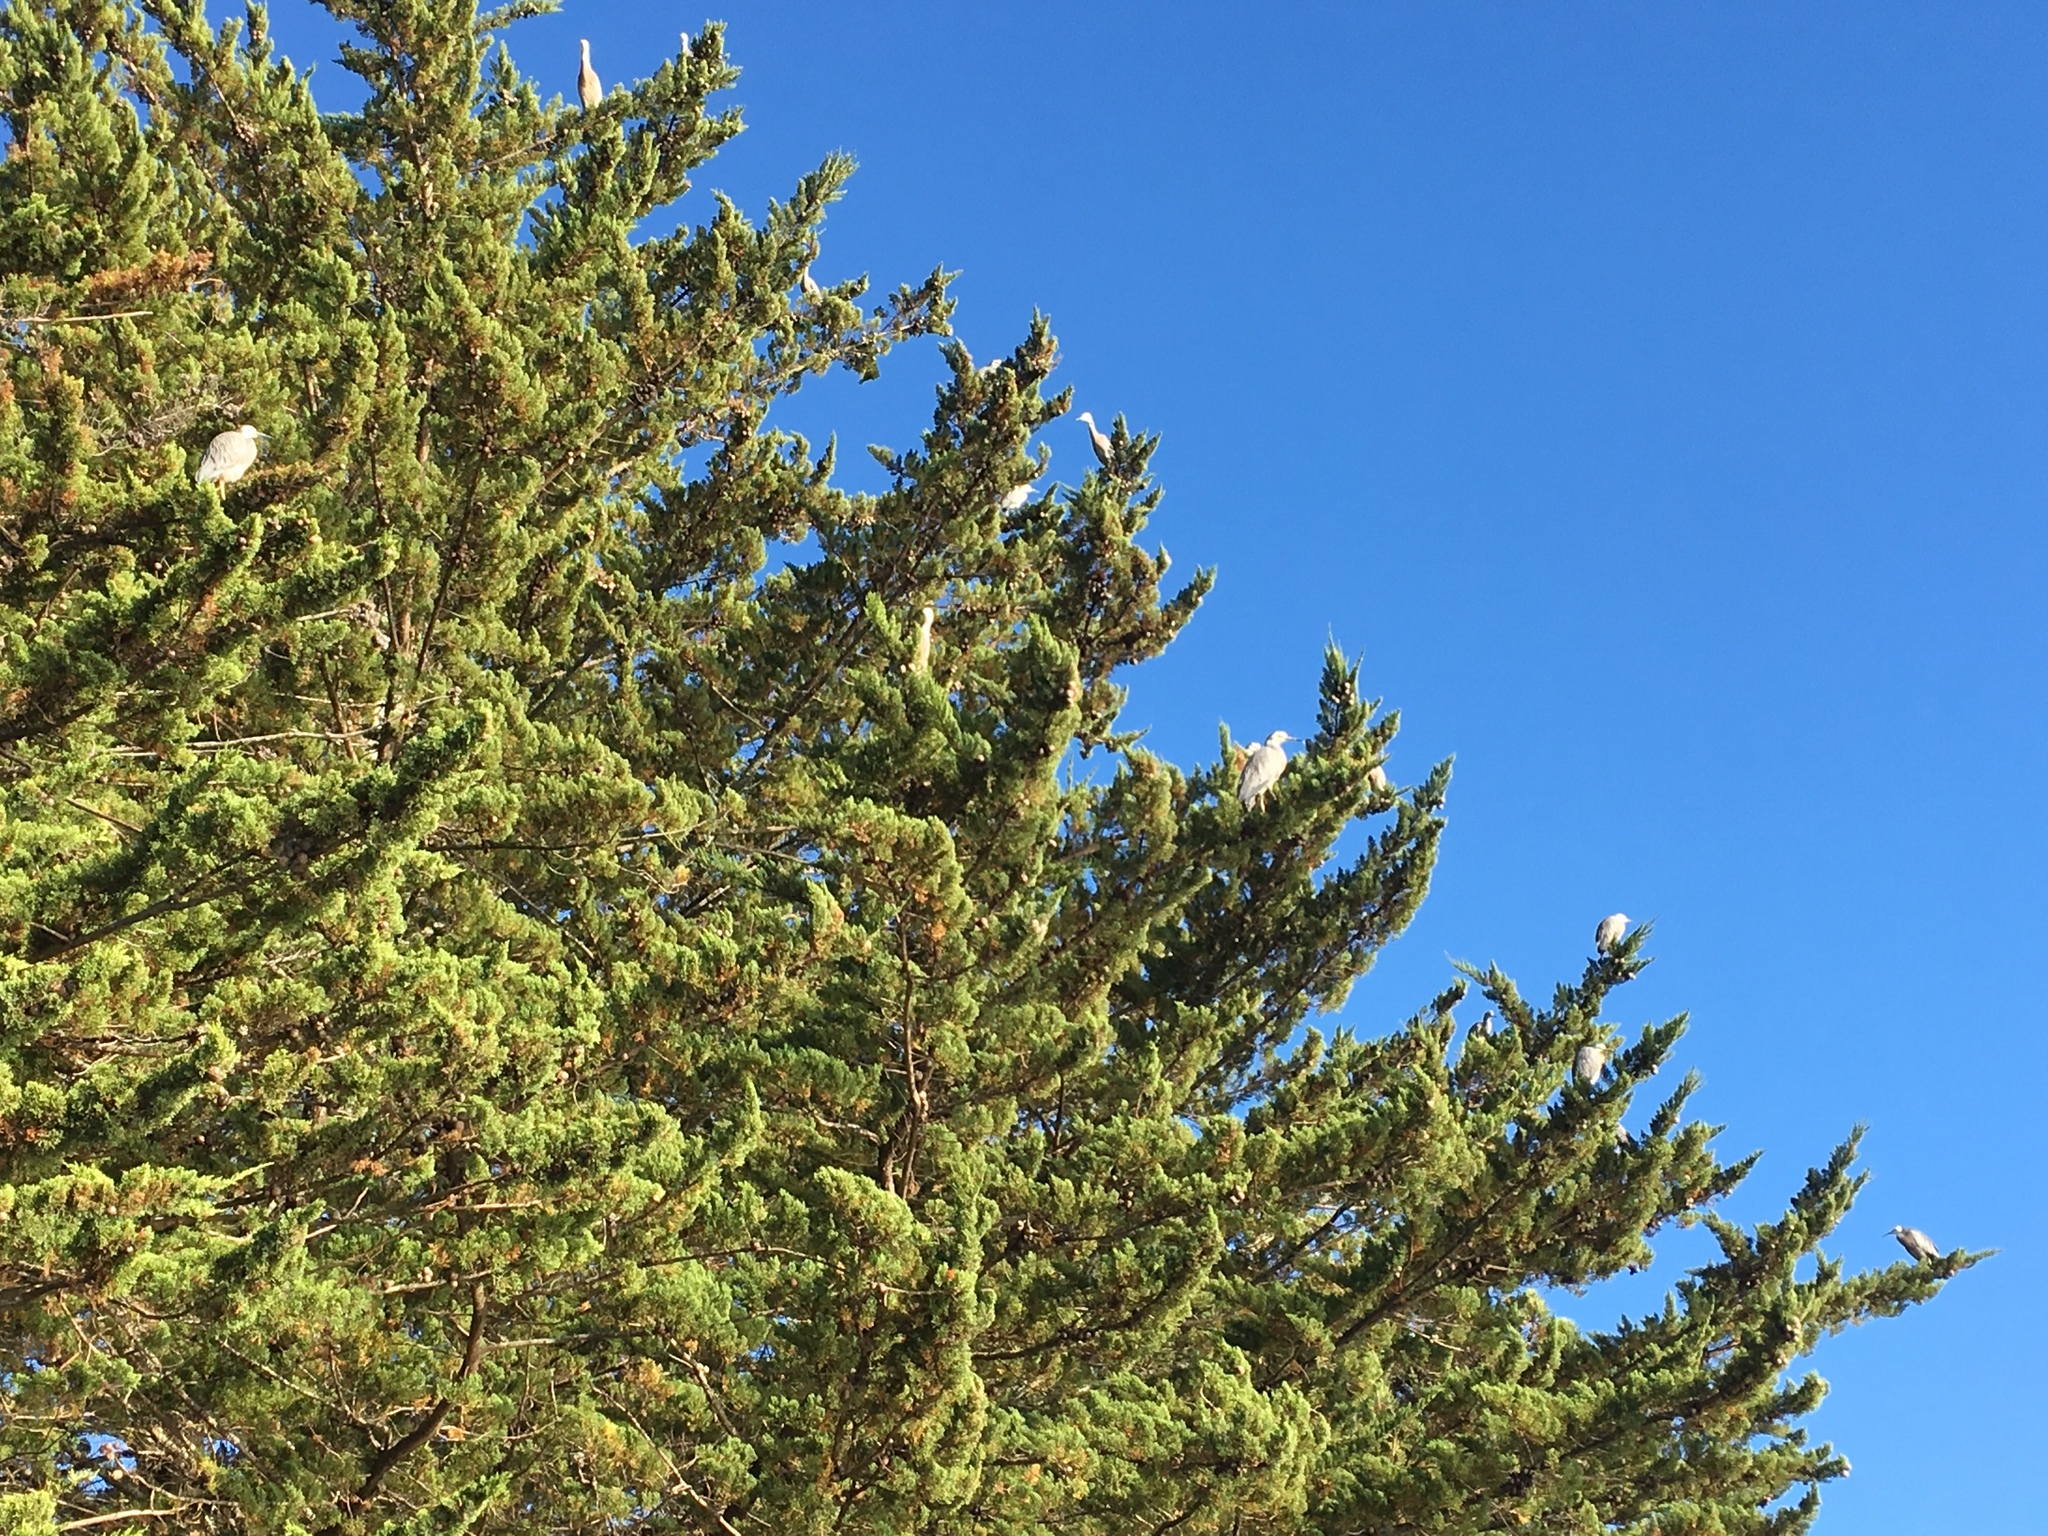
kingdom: Animalia
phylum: Chordata
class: Aves
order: Pelecaniformes
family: Ardeidae
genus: Egretta
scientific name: Egretta novaehollandiae
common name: White-faced heron
